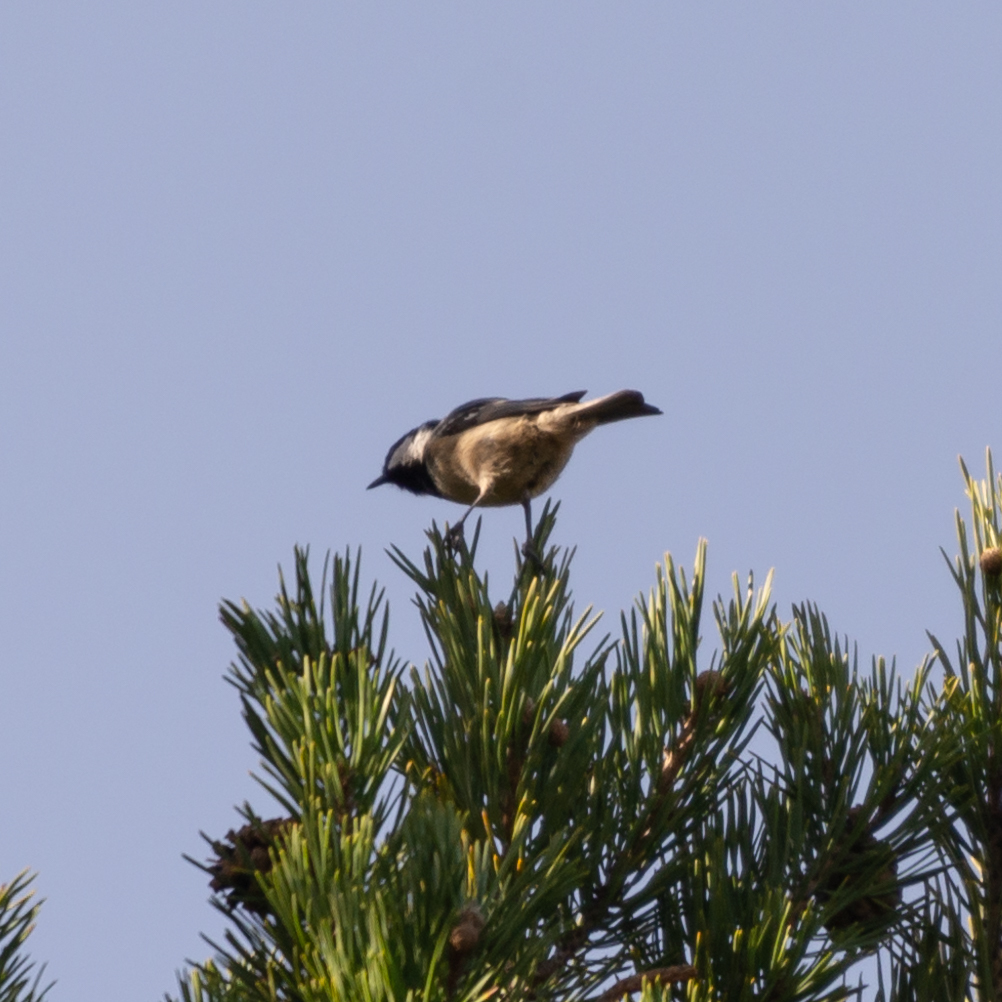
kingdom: Animalia
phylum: Chordata
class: Aves
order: Passeriformes
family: Paridae
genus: Periparus
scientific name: Periparus ater
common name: Coal tit
